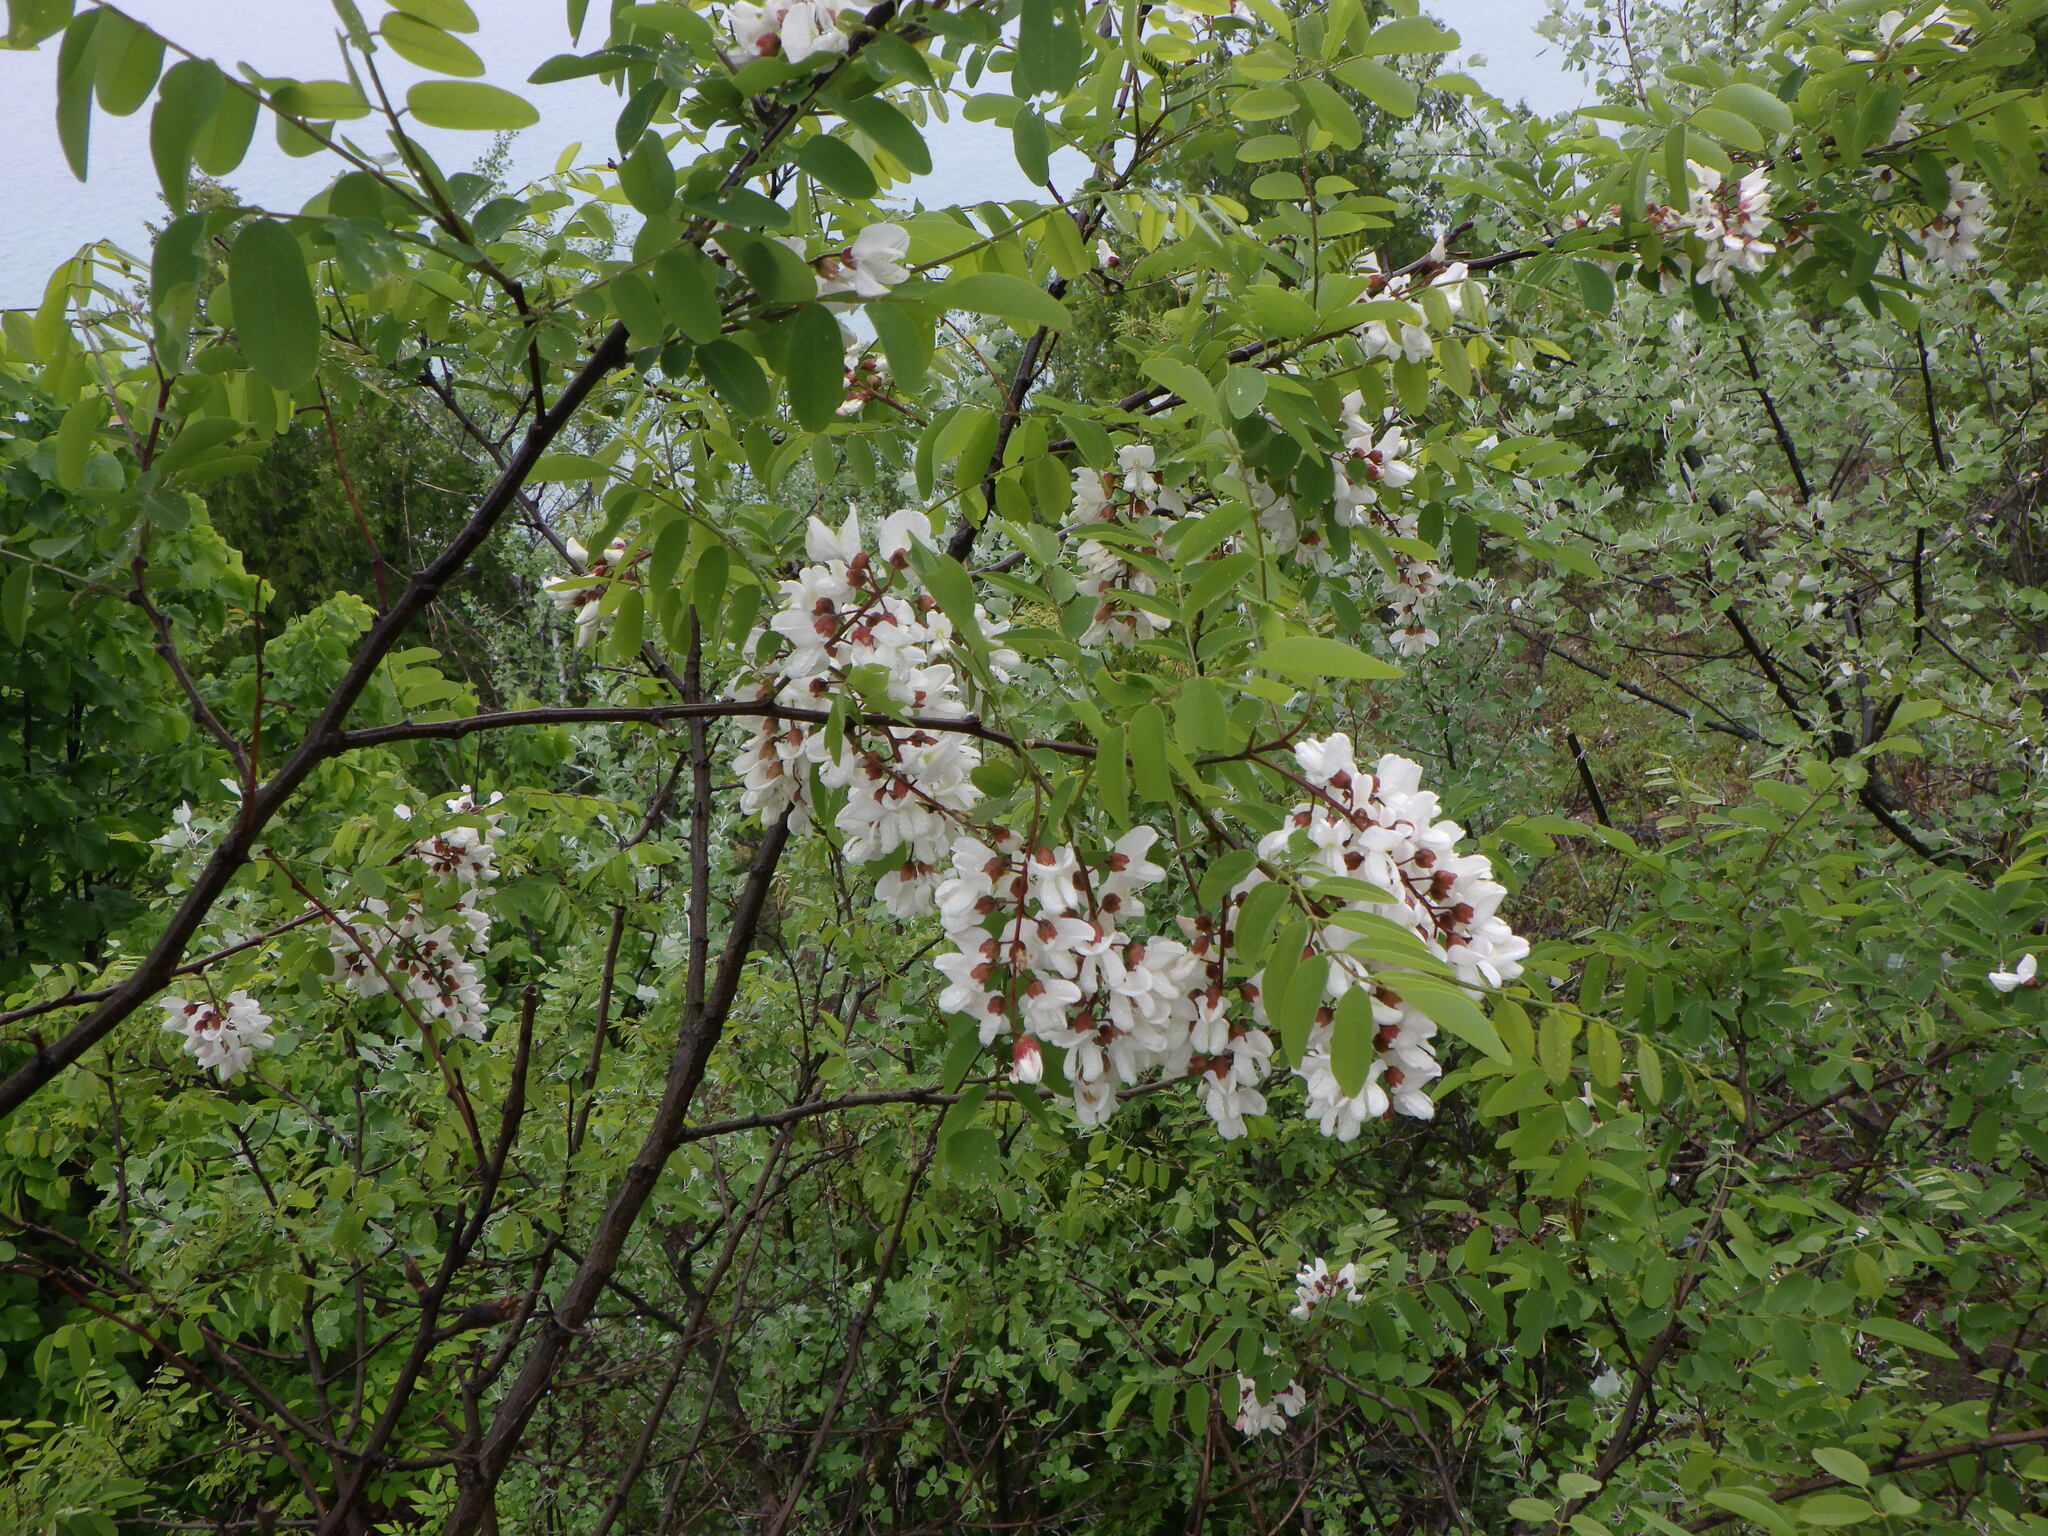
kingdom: Plantae
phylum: Tracheophyta
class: Magnoliopsida
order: Fabales
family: Fabaceae
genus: Robinia
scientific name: Robinia pseudoacacia
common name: Black locust
